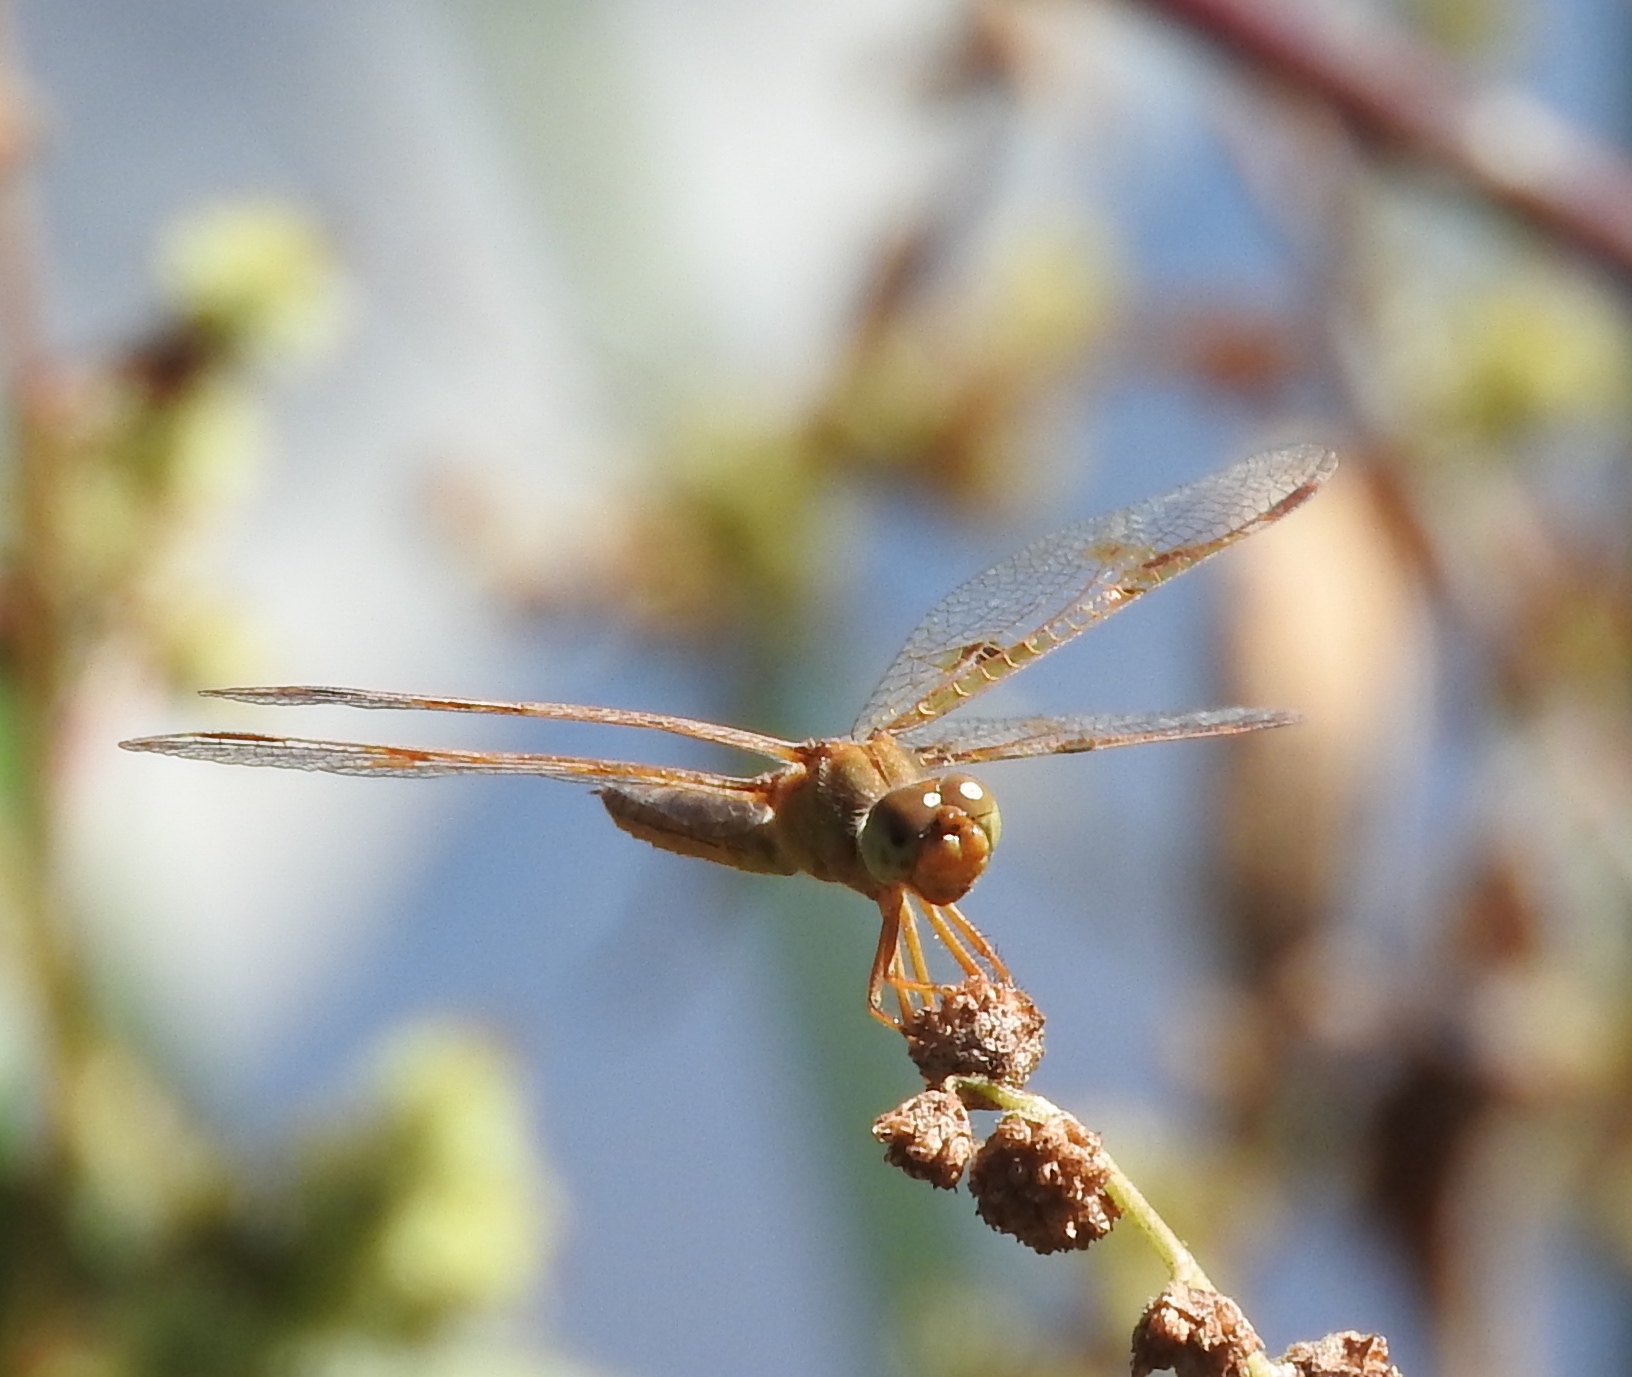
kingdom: Animalia
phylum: Arthropoda
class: Insecta
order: Odonata
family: Libellulidae
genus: Perithemis
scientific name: Perithemis
